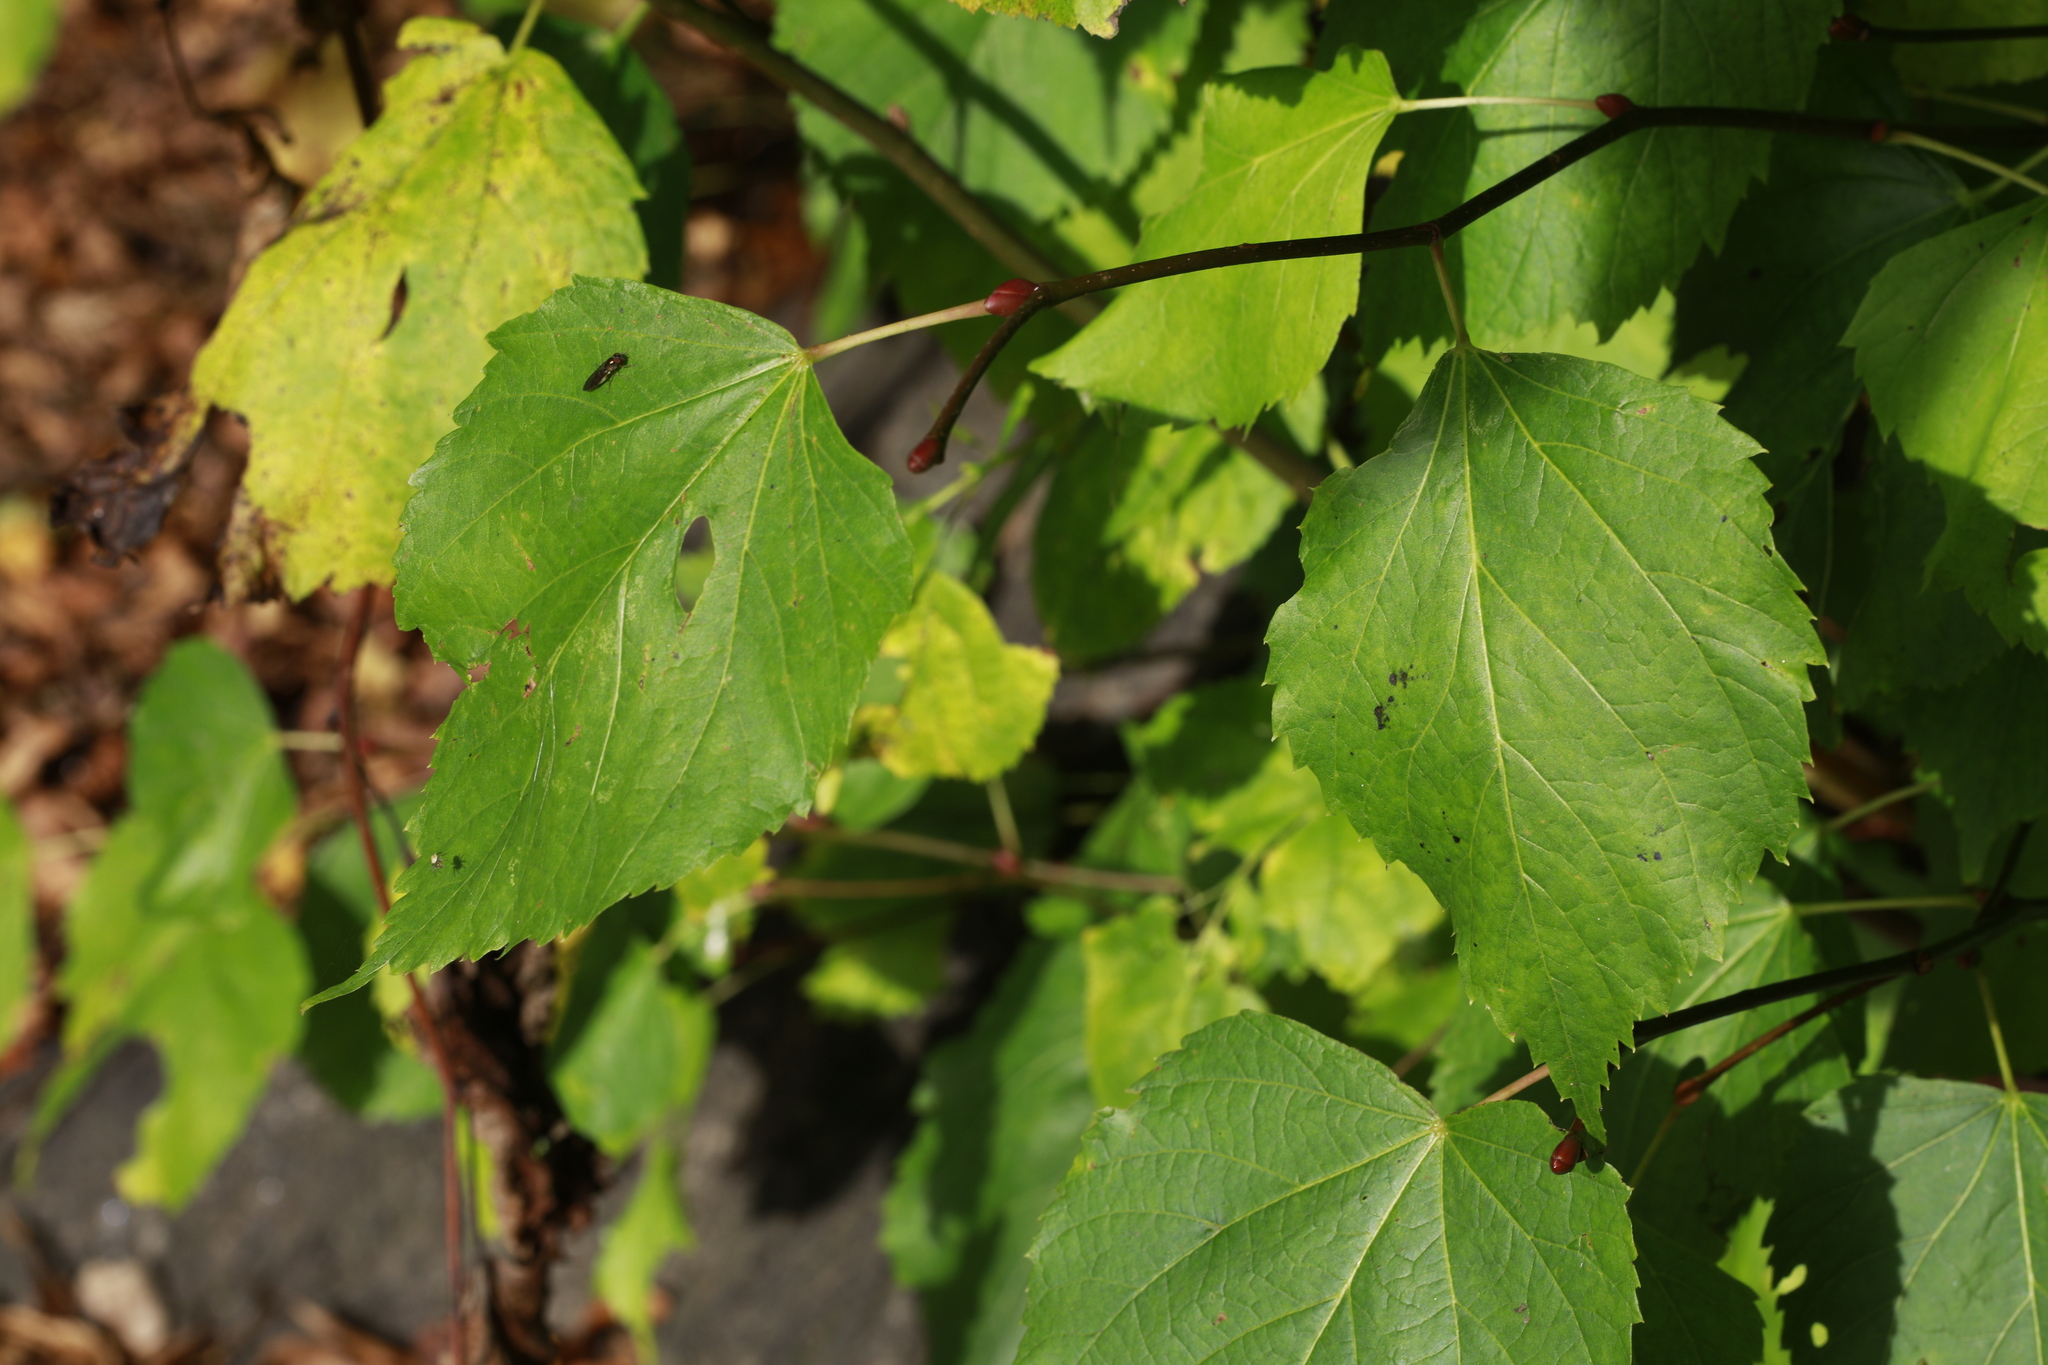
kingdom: Plantae
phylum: Tracheophyta
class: Magnoliopsida
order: Fagales
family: Betulaceae
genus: Betula
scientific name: Betula pendula
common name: Silver birch
